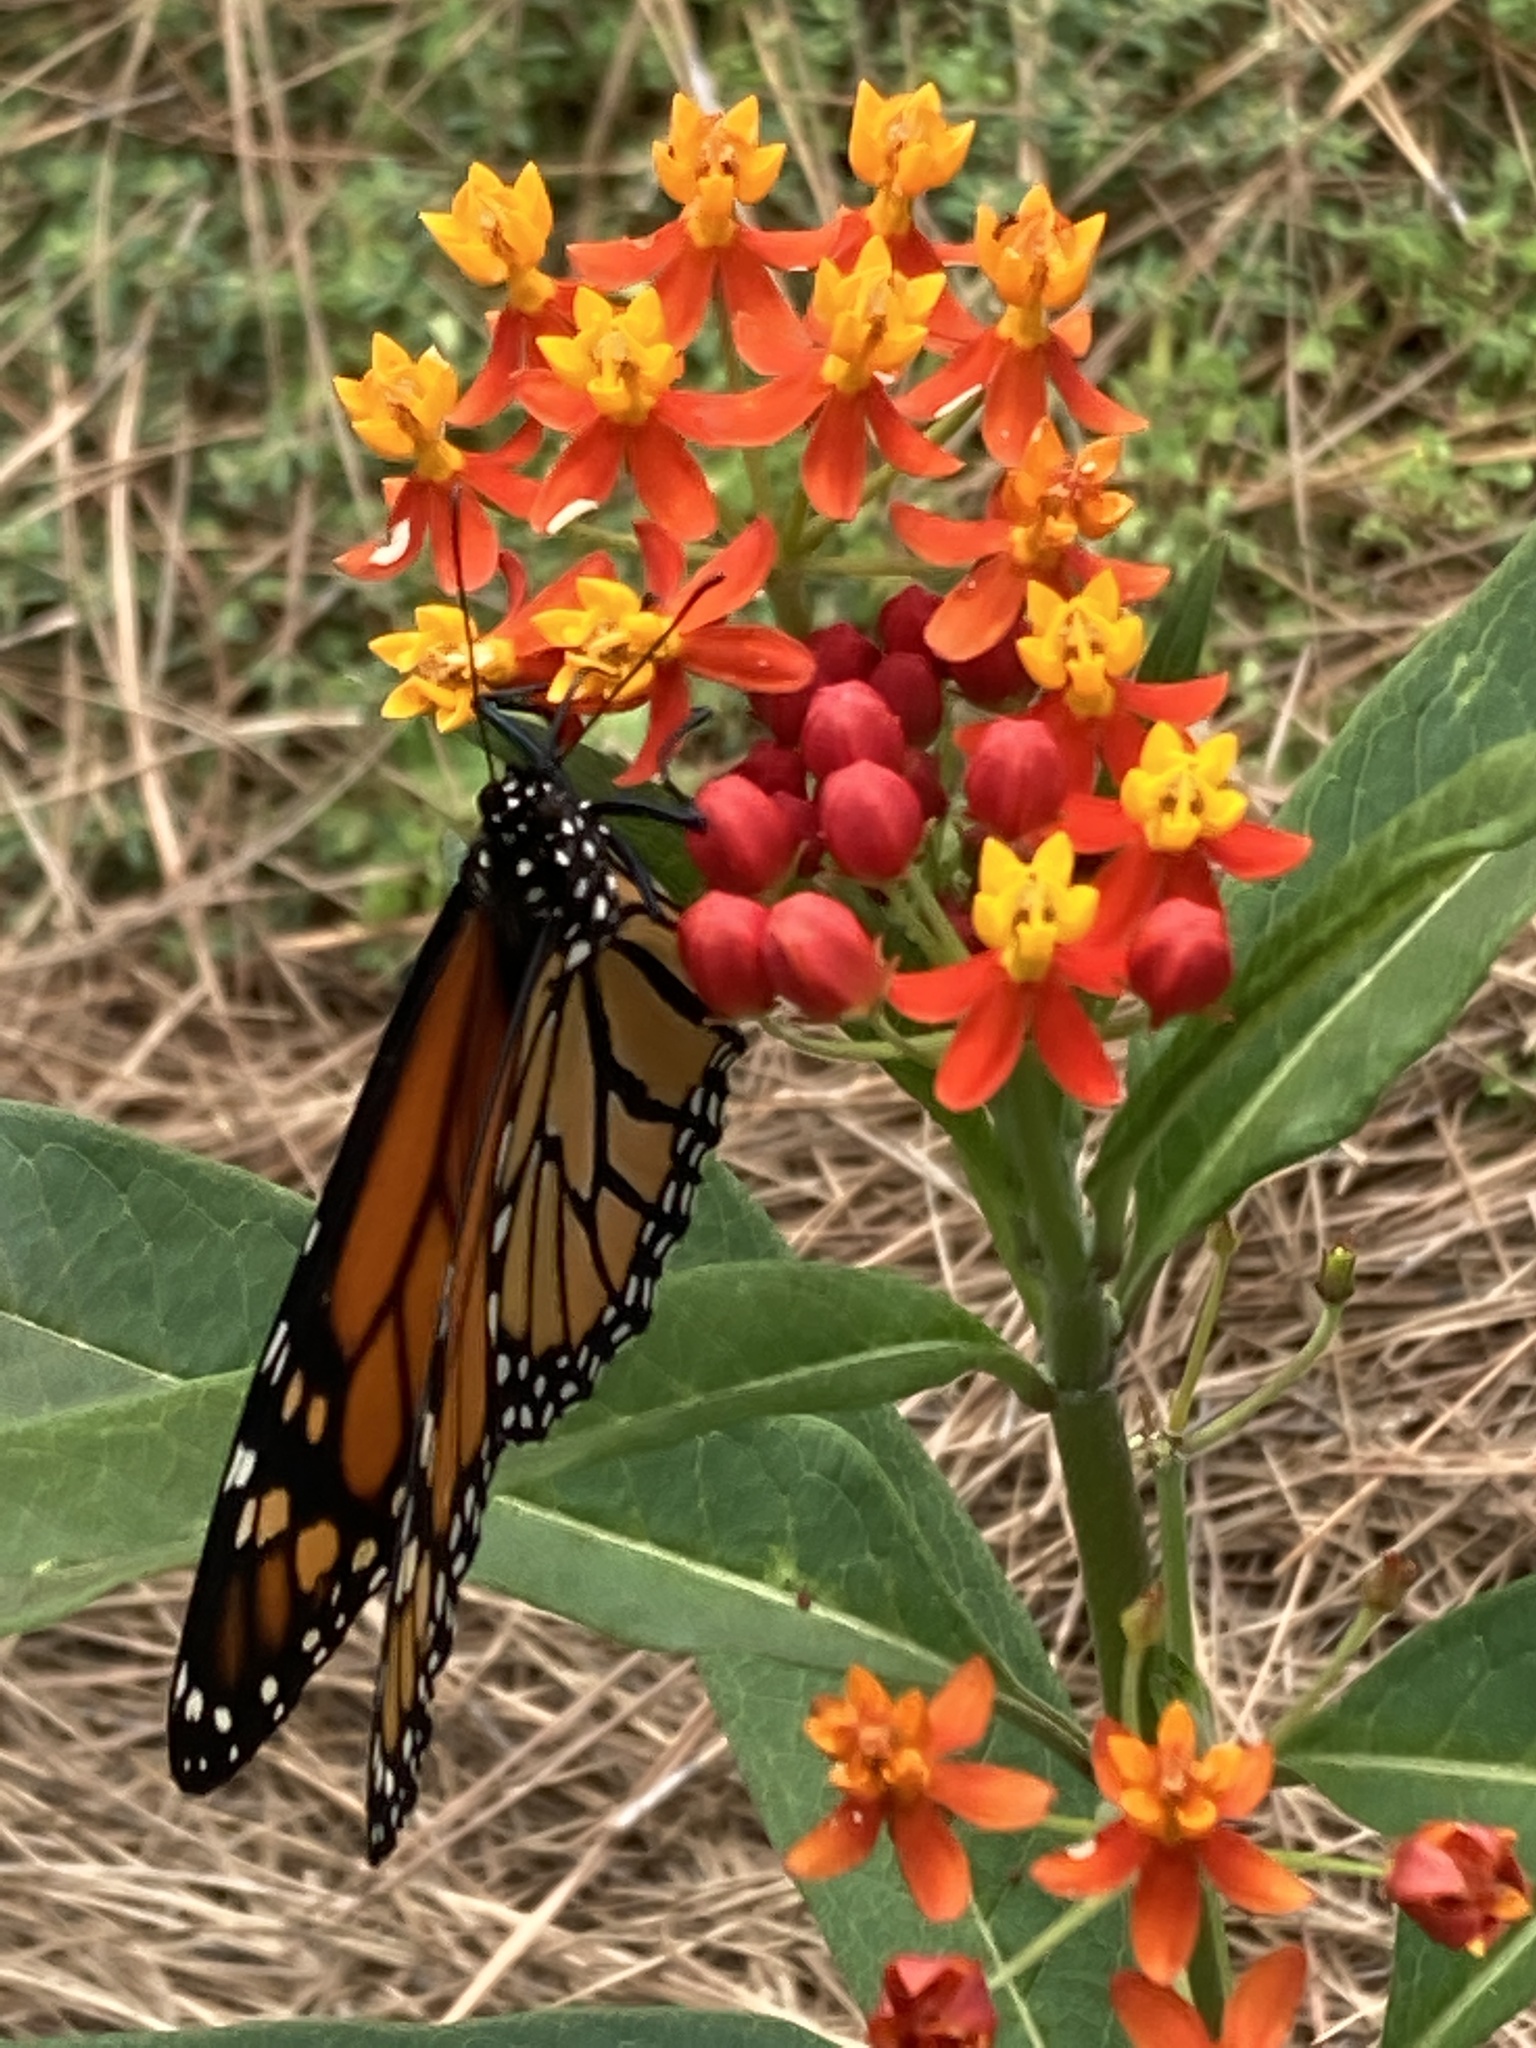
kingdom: Animalia
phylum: Arthropoda
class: Insecta
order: Lepidoptera
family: Nymphalidae
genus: Danaus
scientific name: Danaus plexippus
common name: Monarch
